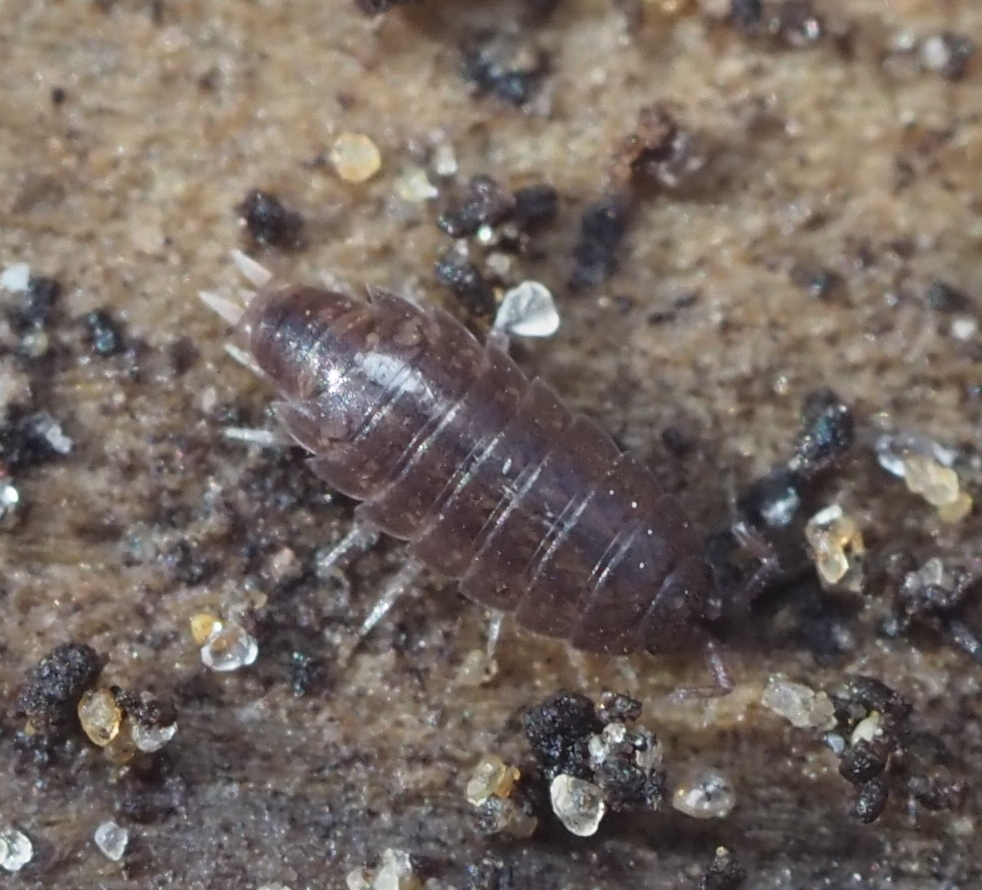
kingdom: Animalia
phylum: Arthropoda
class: Malacostraca
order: Isopoda
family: Trichoniscidae
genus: Hyloniscus
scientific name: Hyloniscus riparius
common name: Isopod
